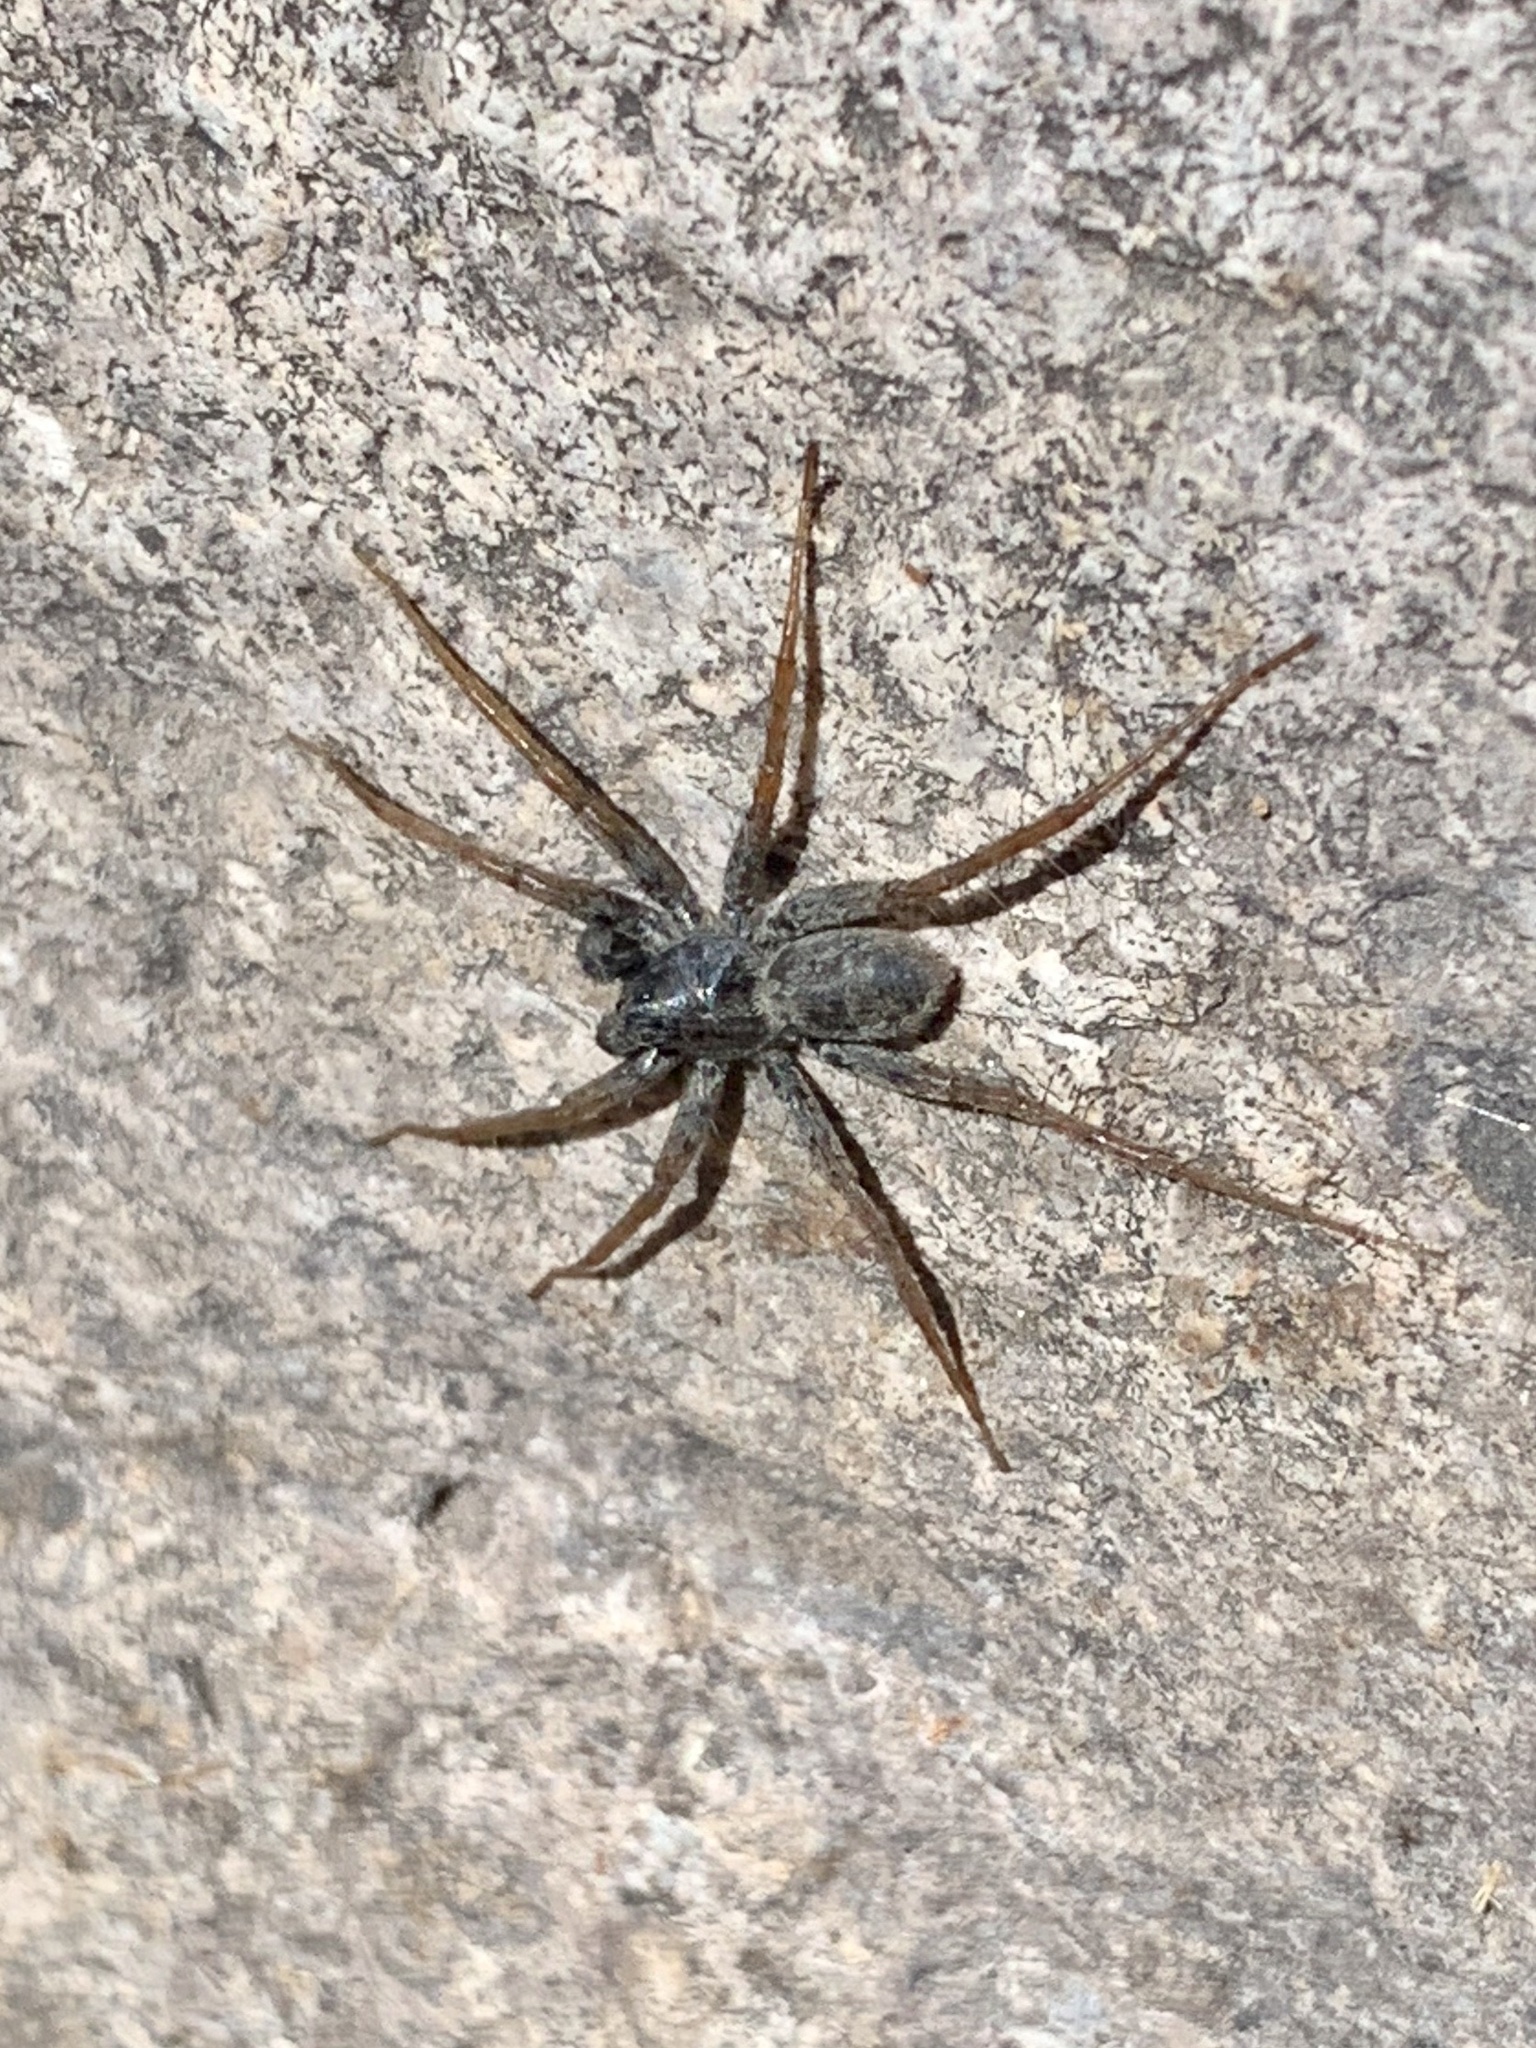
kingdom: Animalia
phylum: Arthropoda
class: Arachnida
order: Araneae
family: Lycosidae
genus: Pardosa
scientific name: Pardosa valens
